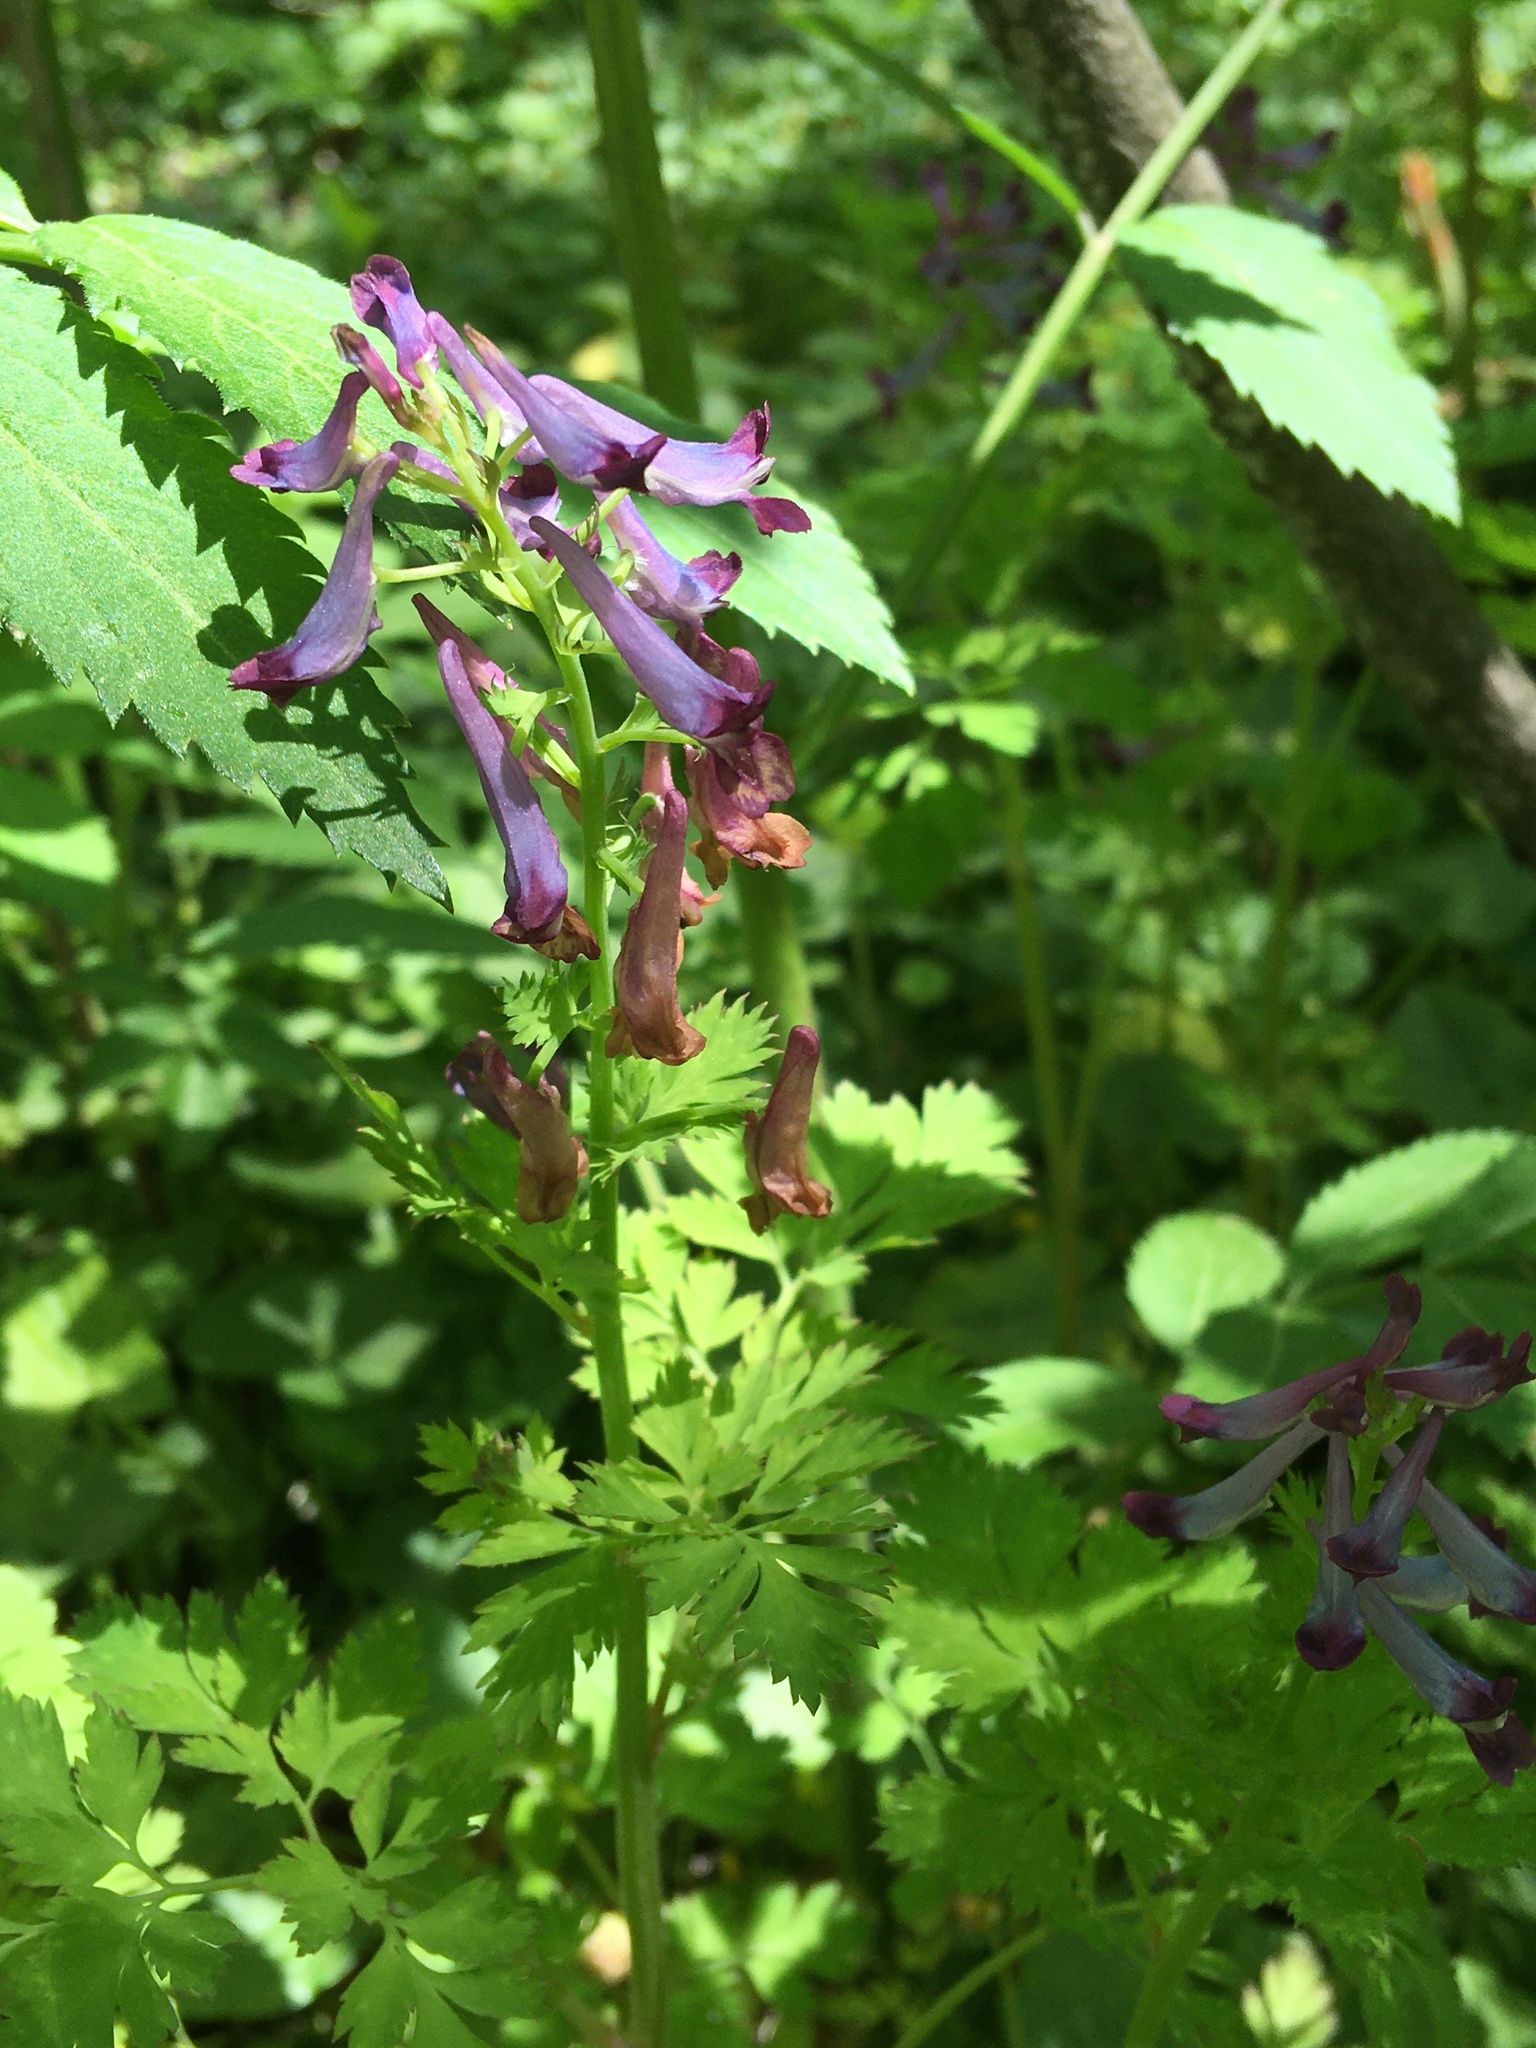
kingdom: Plantae
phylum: Tracheophyta
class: Magnoliopsida
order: Ranunculales
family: Papaveraceae
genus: Corydalis
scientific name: Corydalis incisa
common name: Incised fumewort
